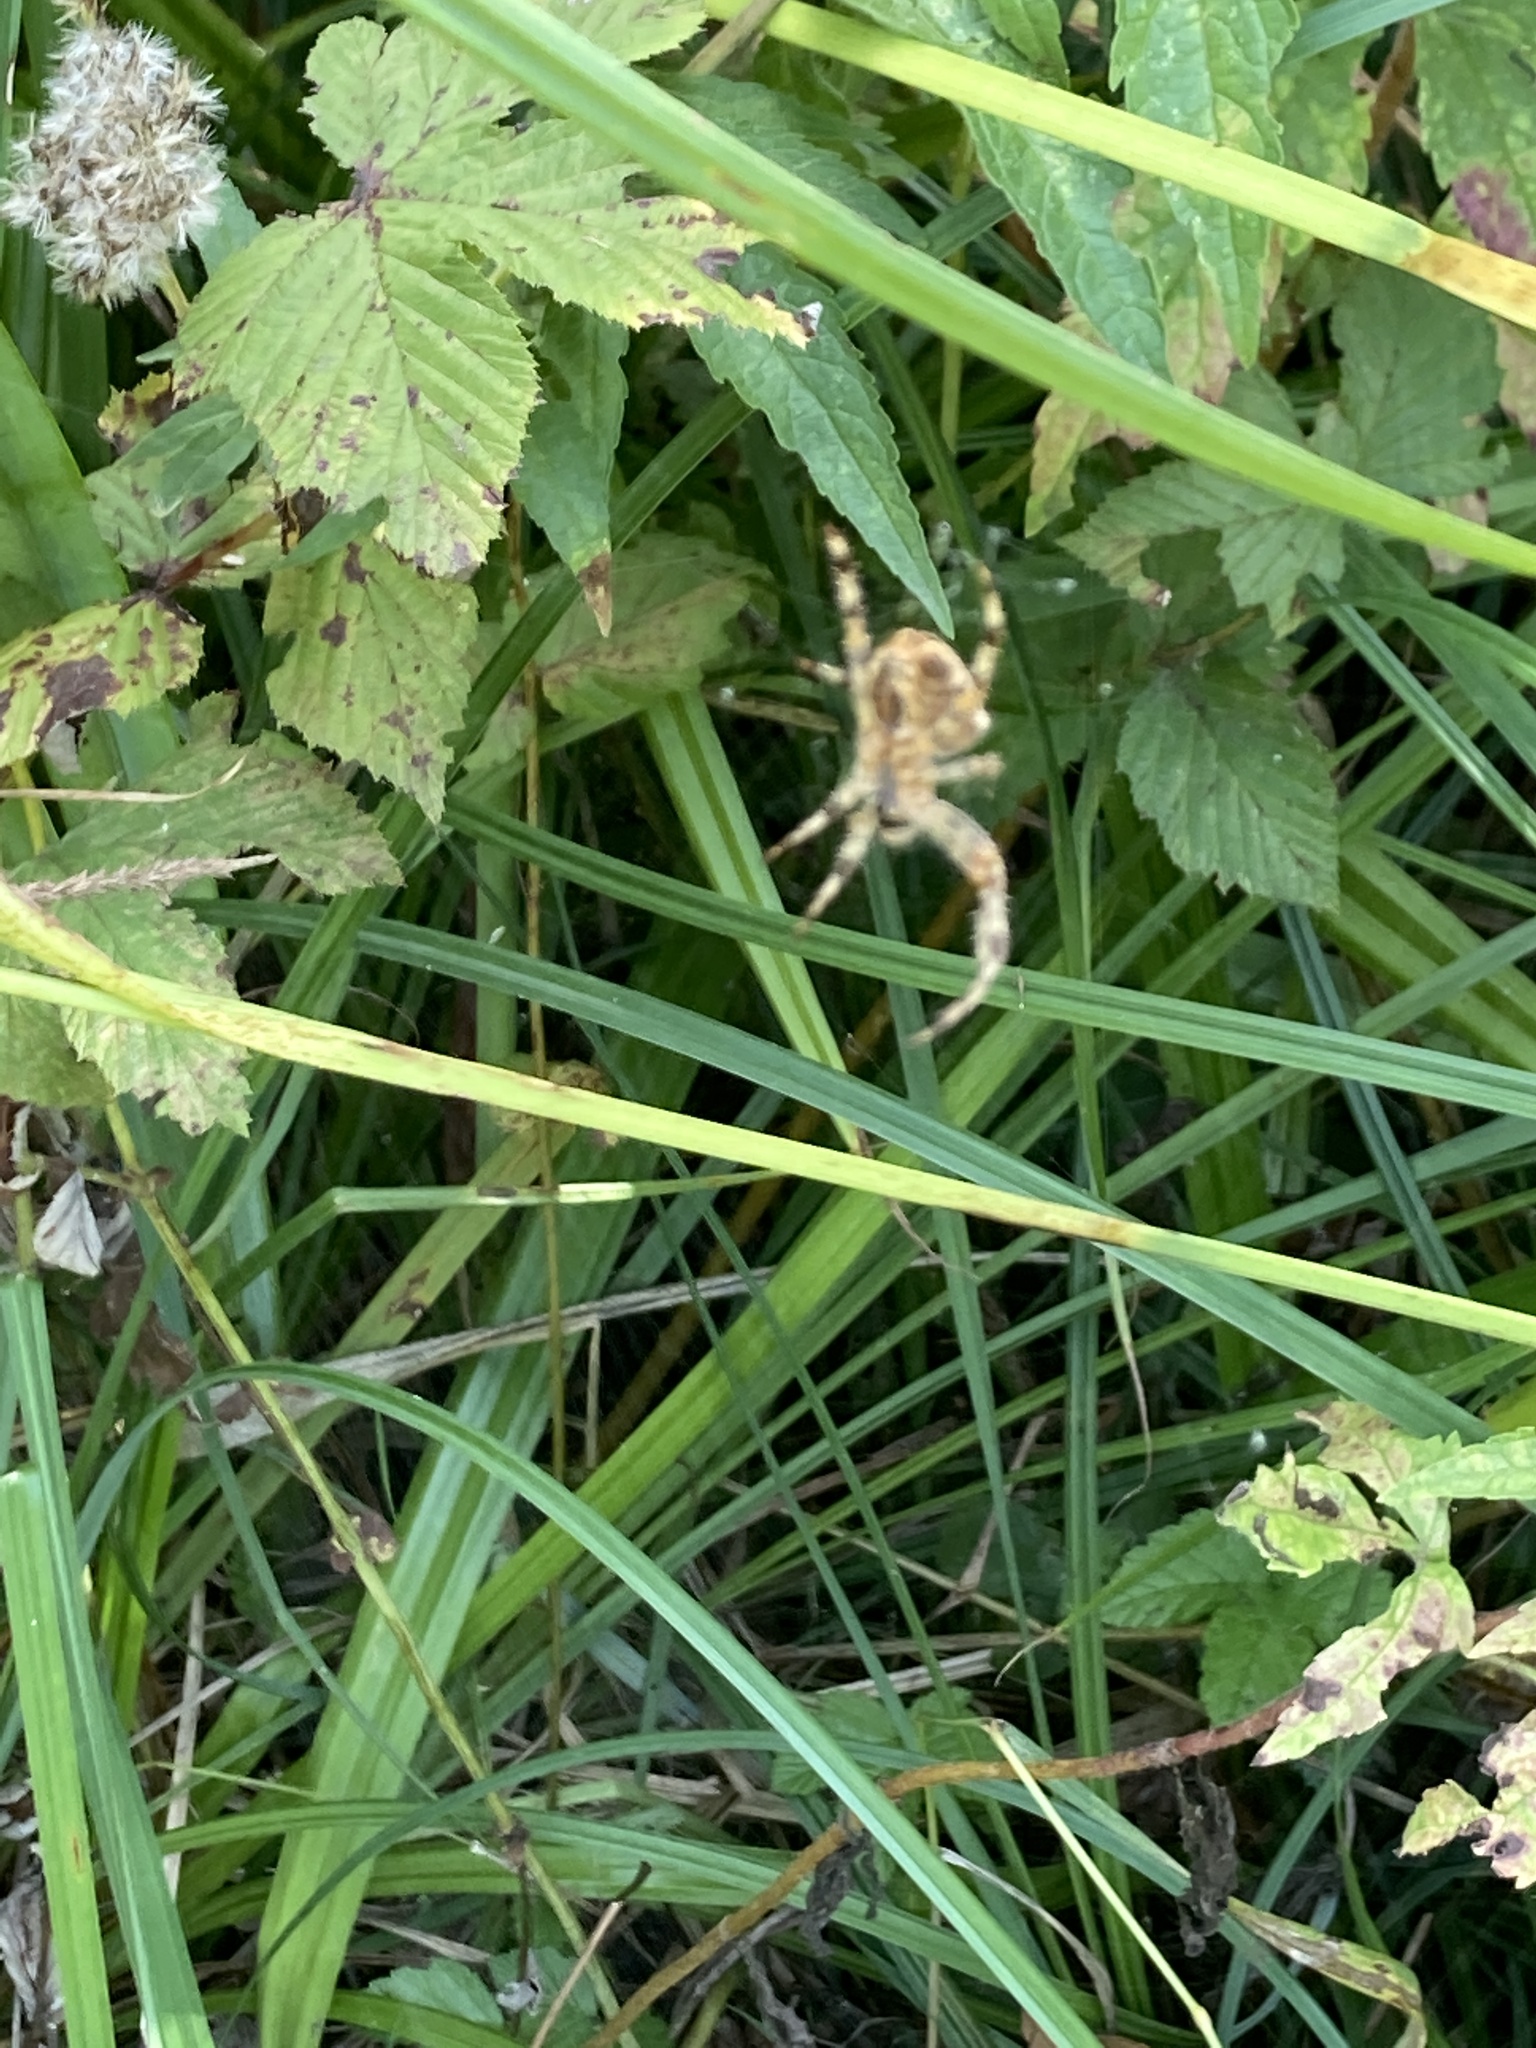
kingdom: Animalia
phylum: Arthropoda
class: Arachnida
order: Araneae
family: Araneidae
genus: Araneus
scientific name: Araneus diadematus
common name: Cross orbweaver
